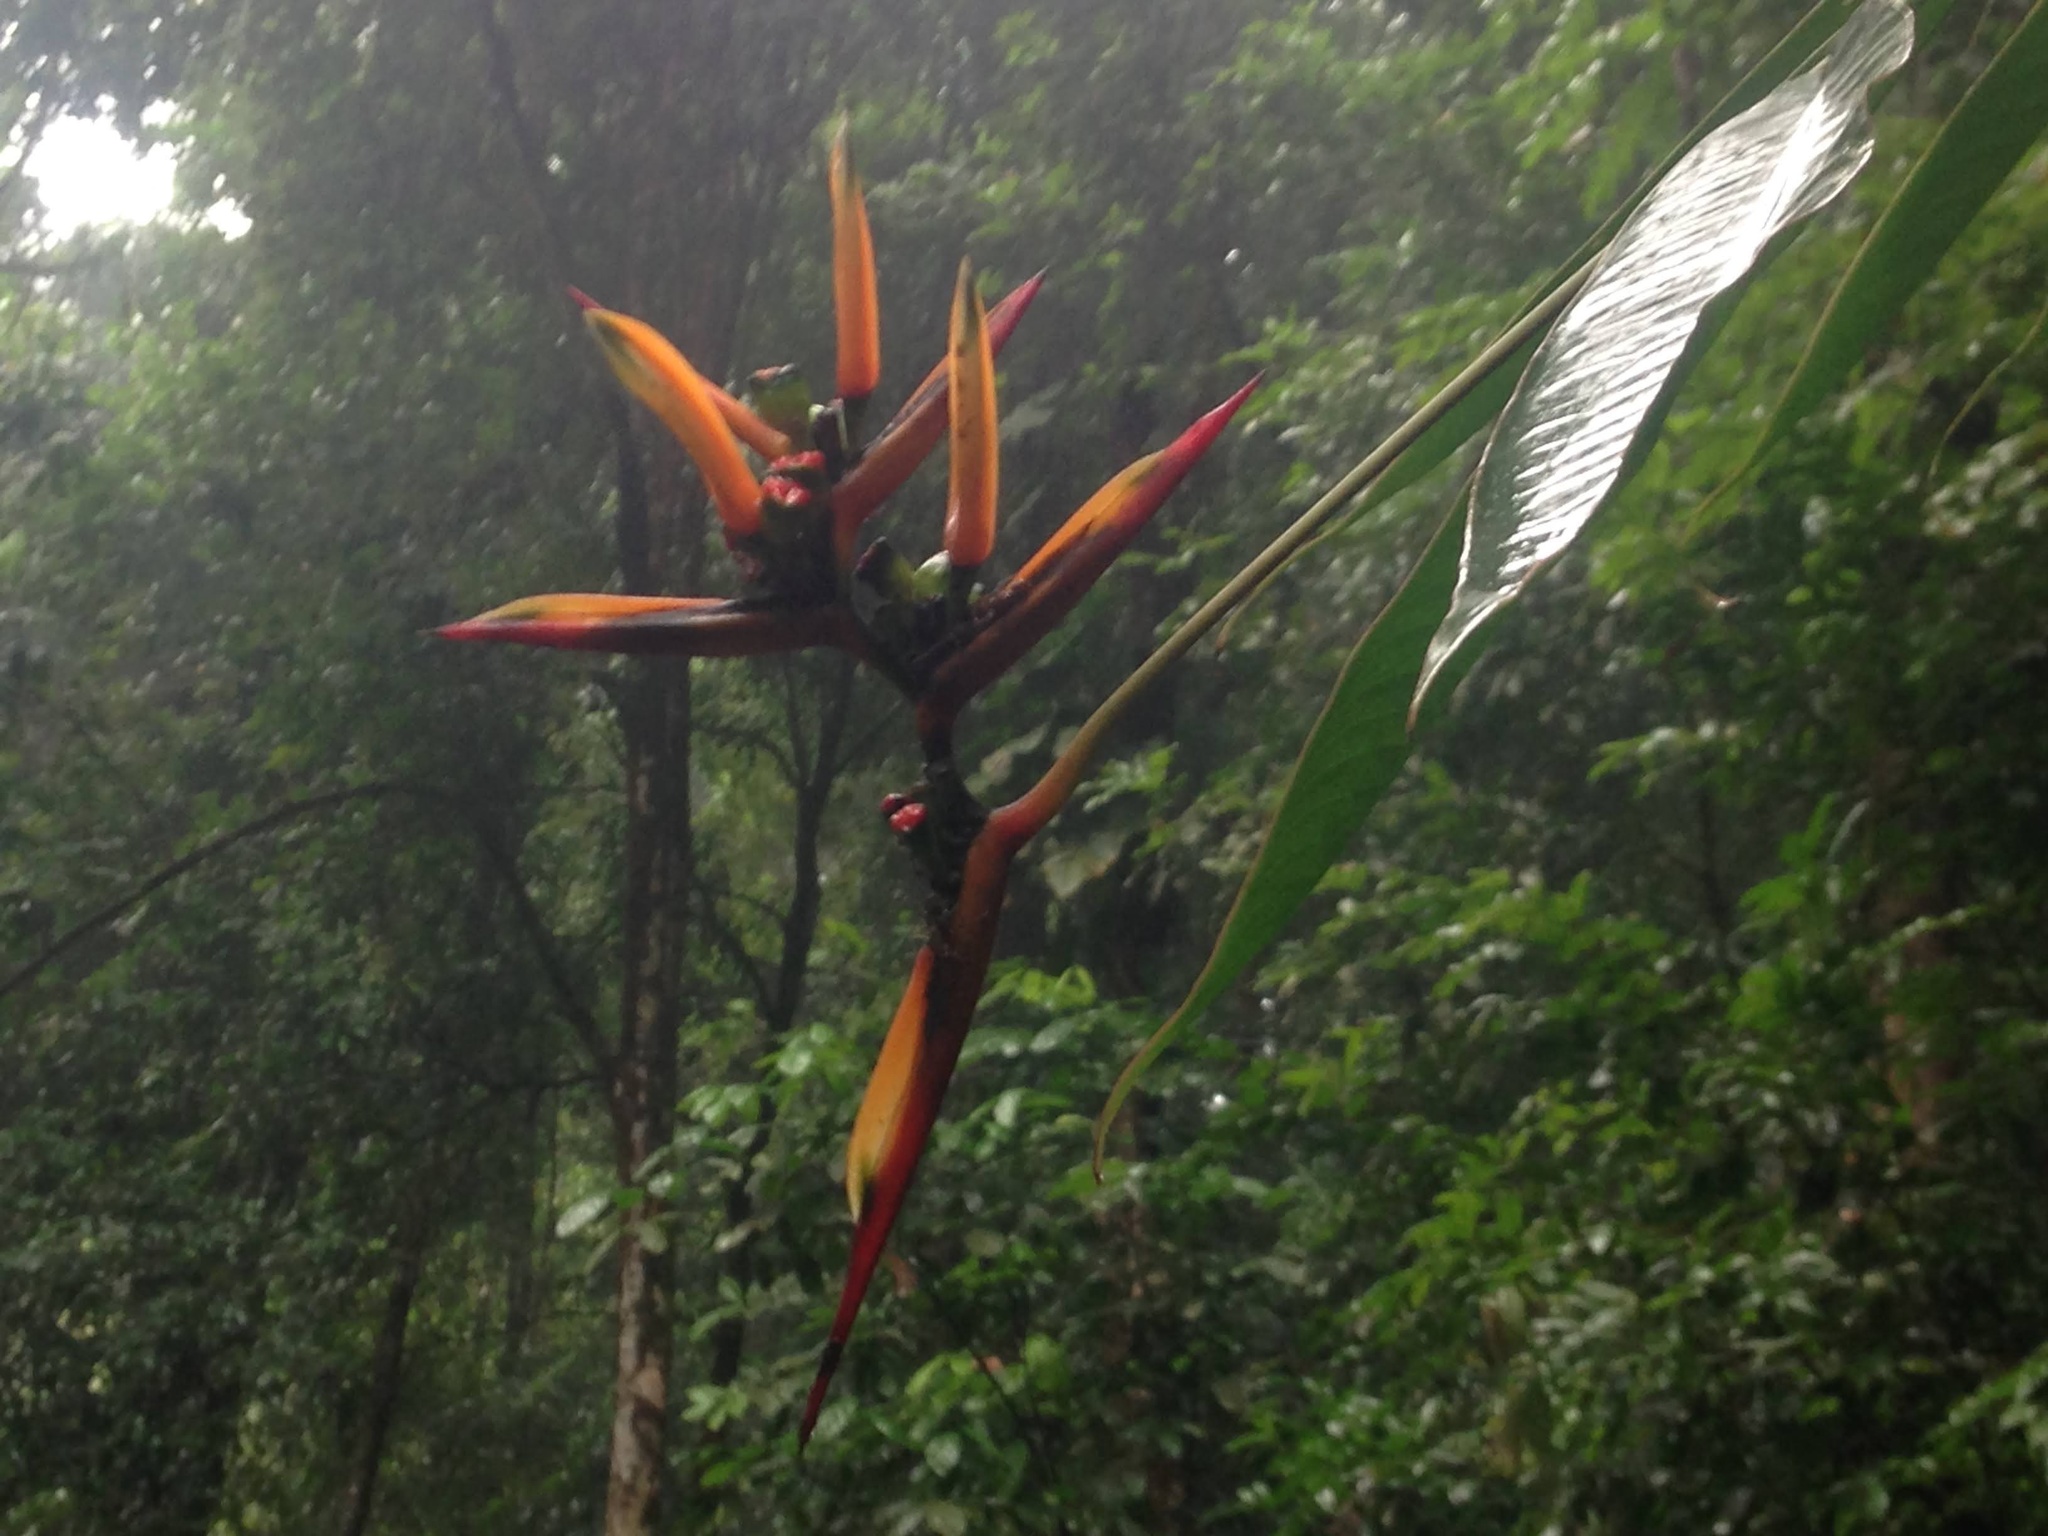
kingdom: Plantae
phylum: Tracheophyta
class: Liliopsida
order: Zingiberales
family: Heliconiaceae
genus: Heliconia
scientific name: Heliconia hirsuta
